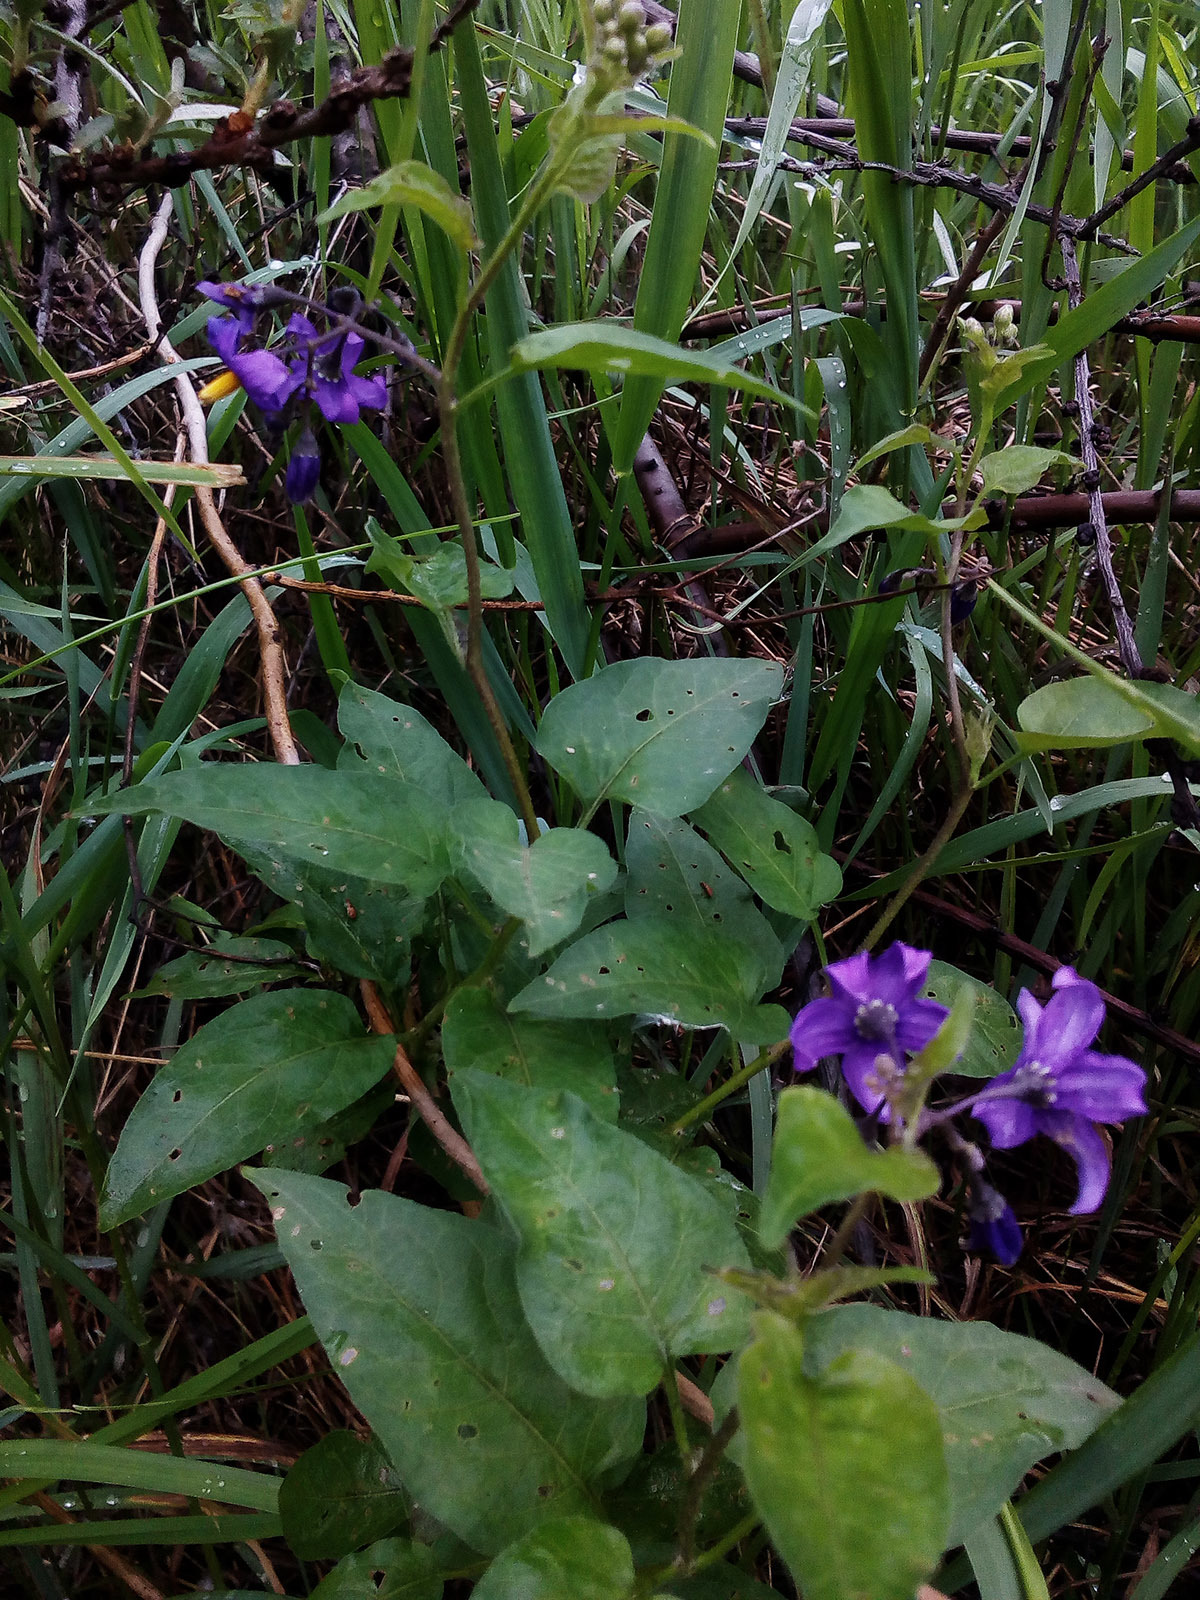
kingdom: Plantae
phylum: Tracheophyta
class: Magnoliopsida
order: Solanales
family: Solanaceae
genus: Solanum
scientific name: Solanum dulcamara
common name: Climbing nightshade
